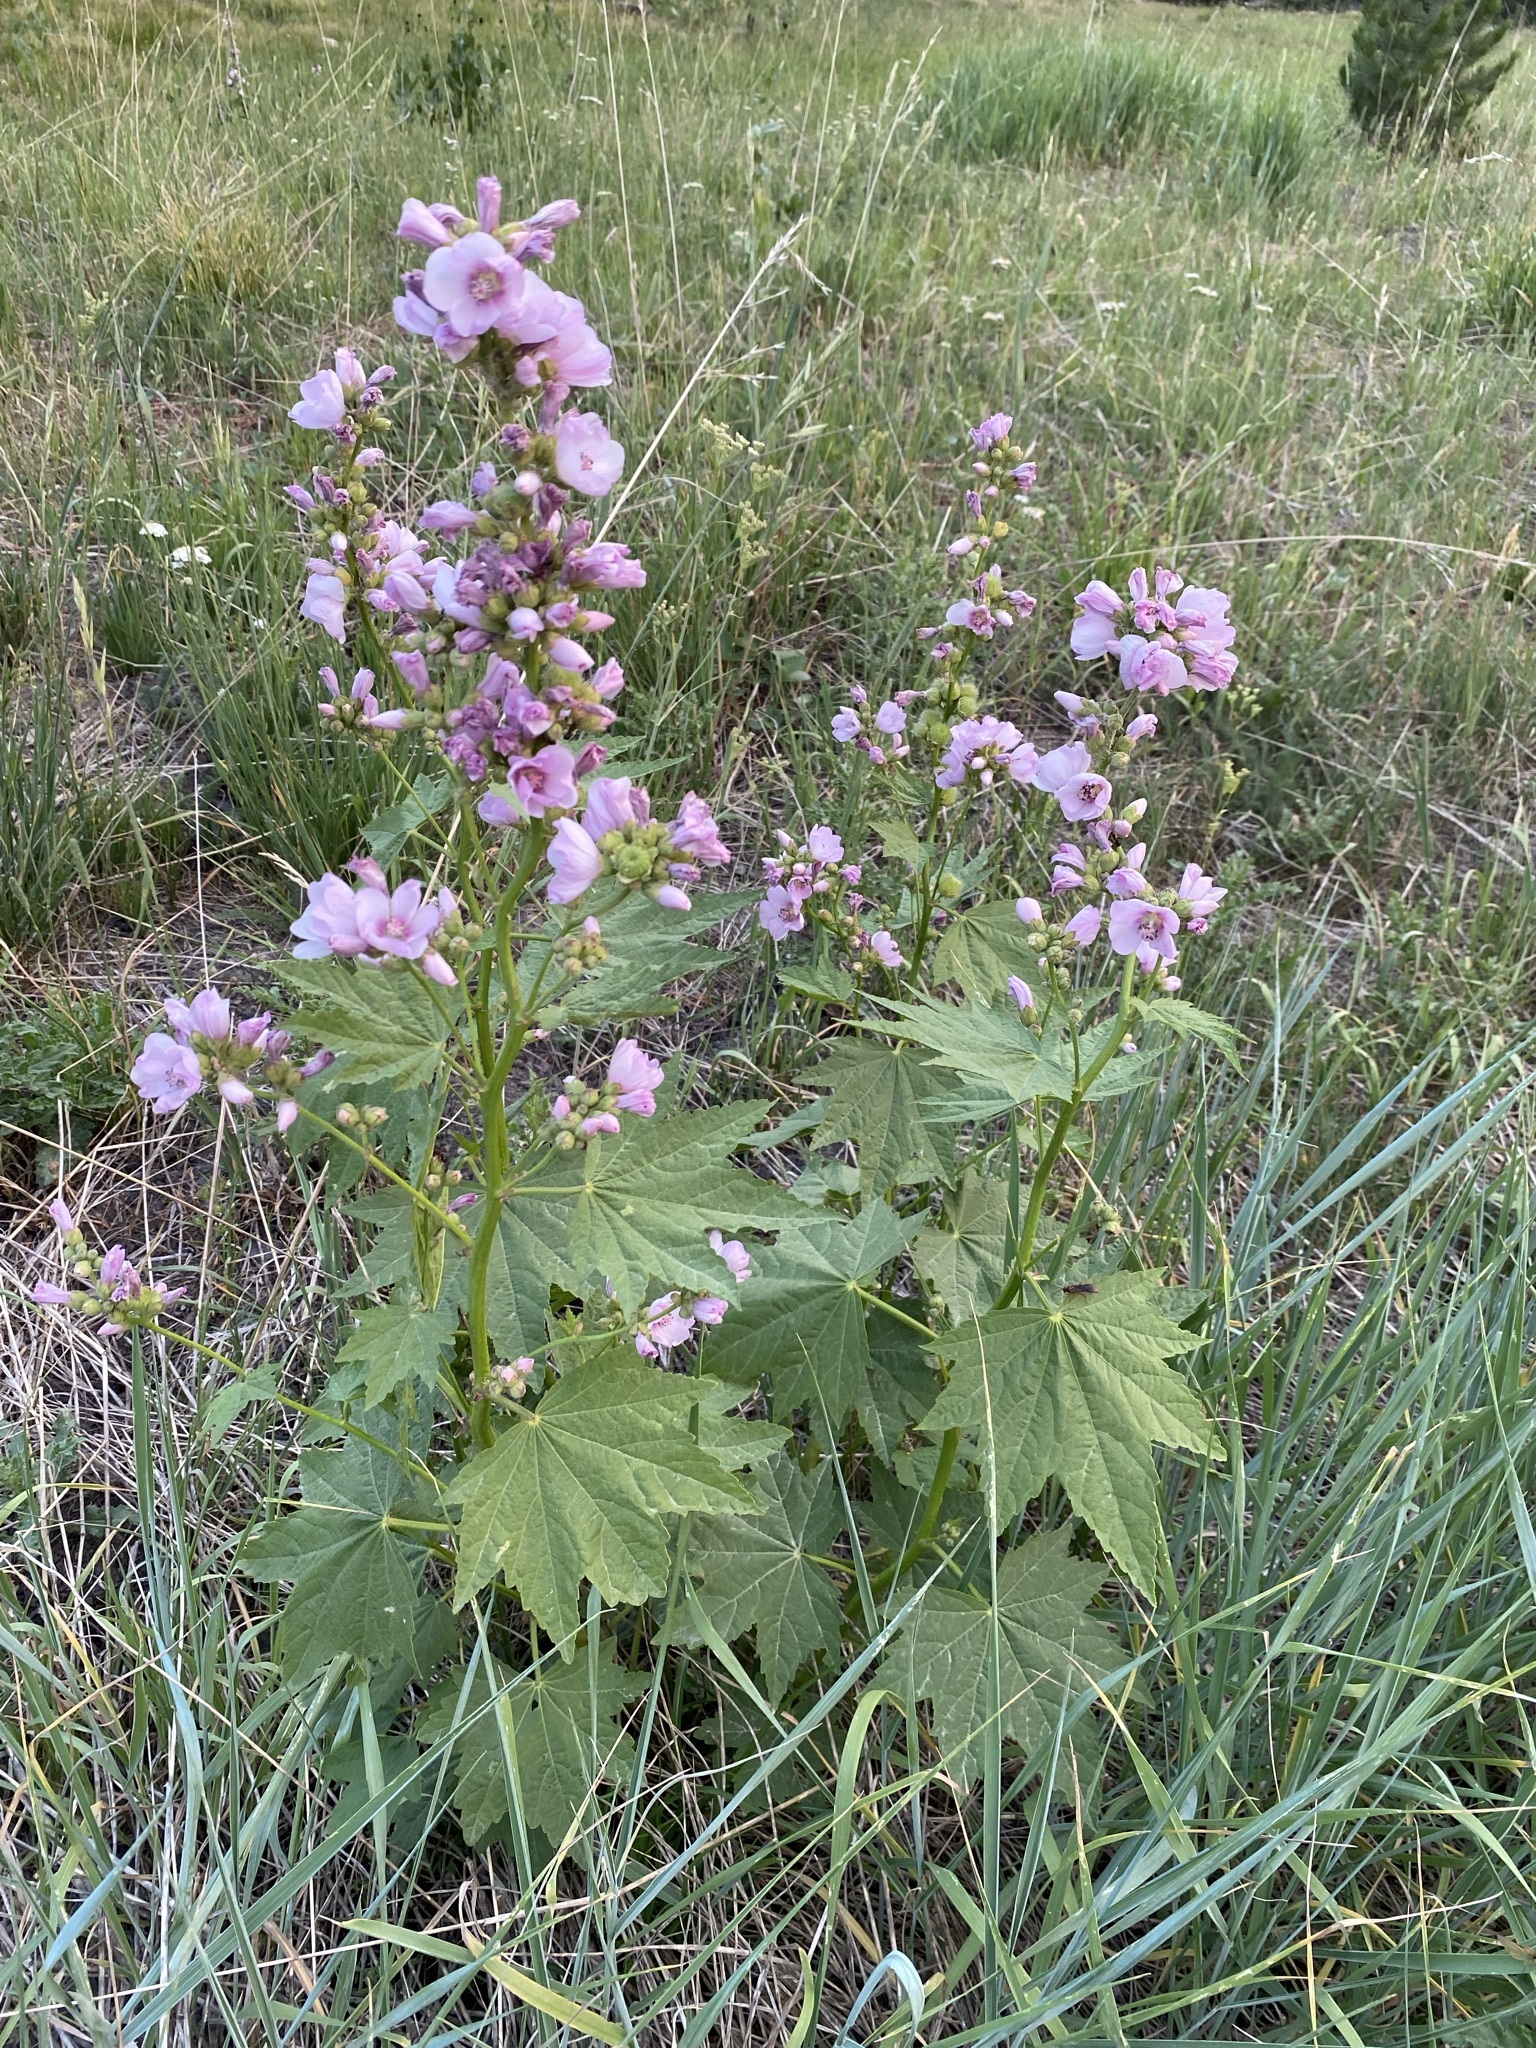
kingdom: Plantae
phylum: Tracheophyta
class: Magnoliopsida
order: Malvales
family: Malvaceae
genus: Iliamna
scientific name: Iliamna rivularis
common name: Wild hollyhock
